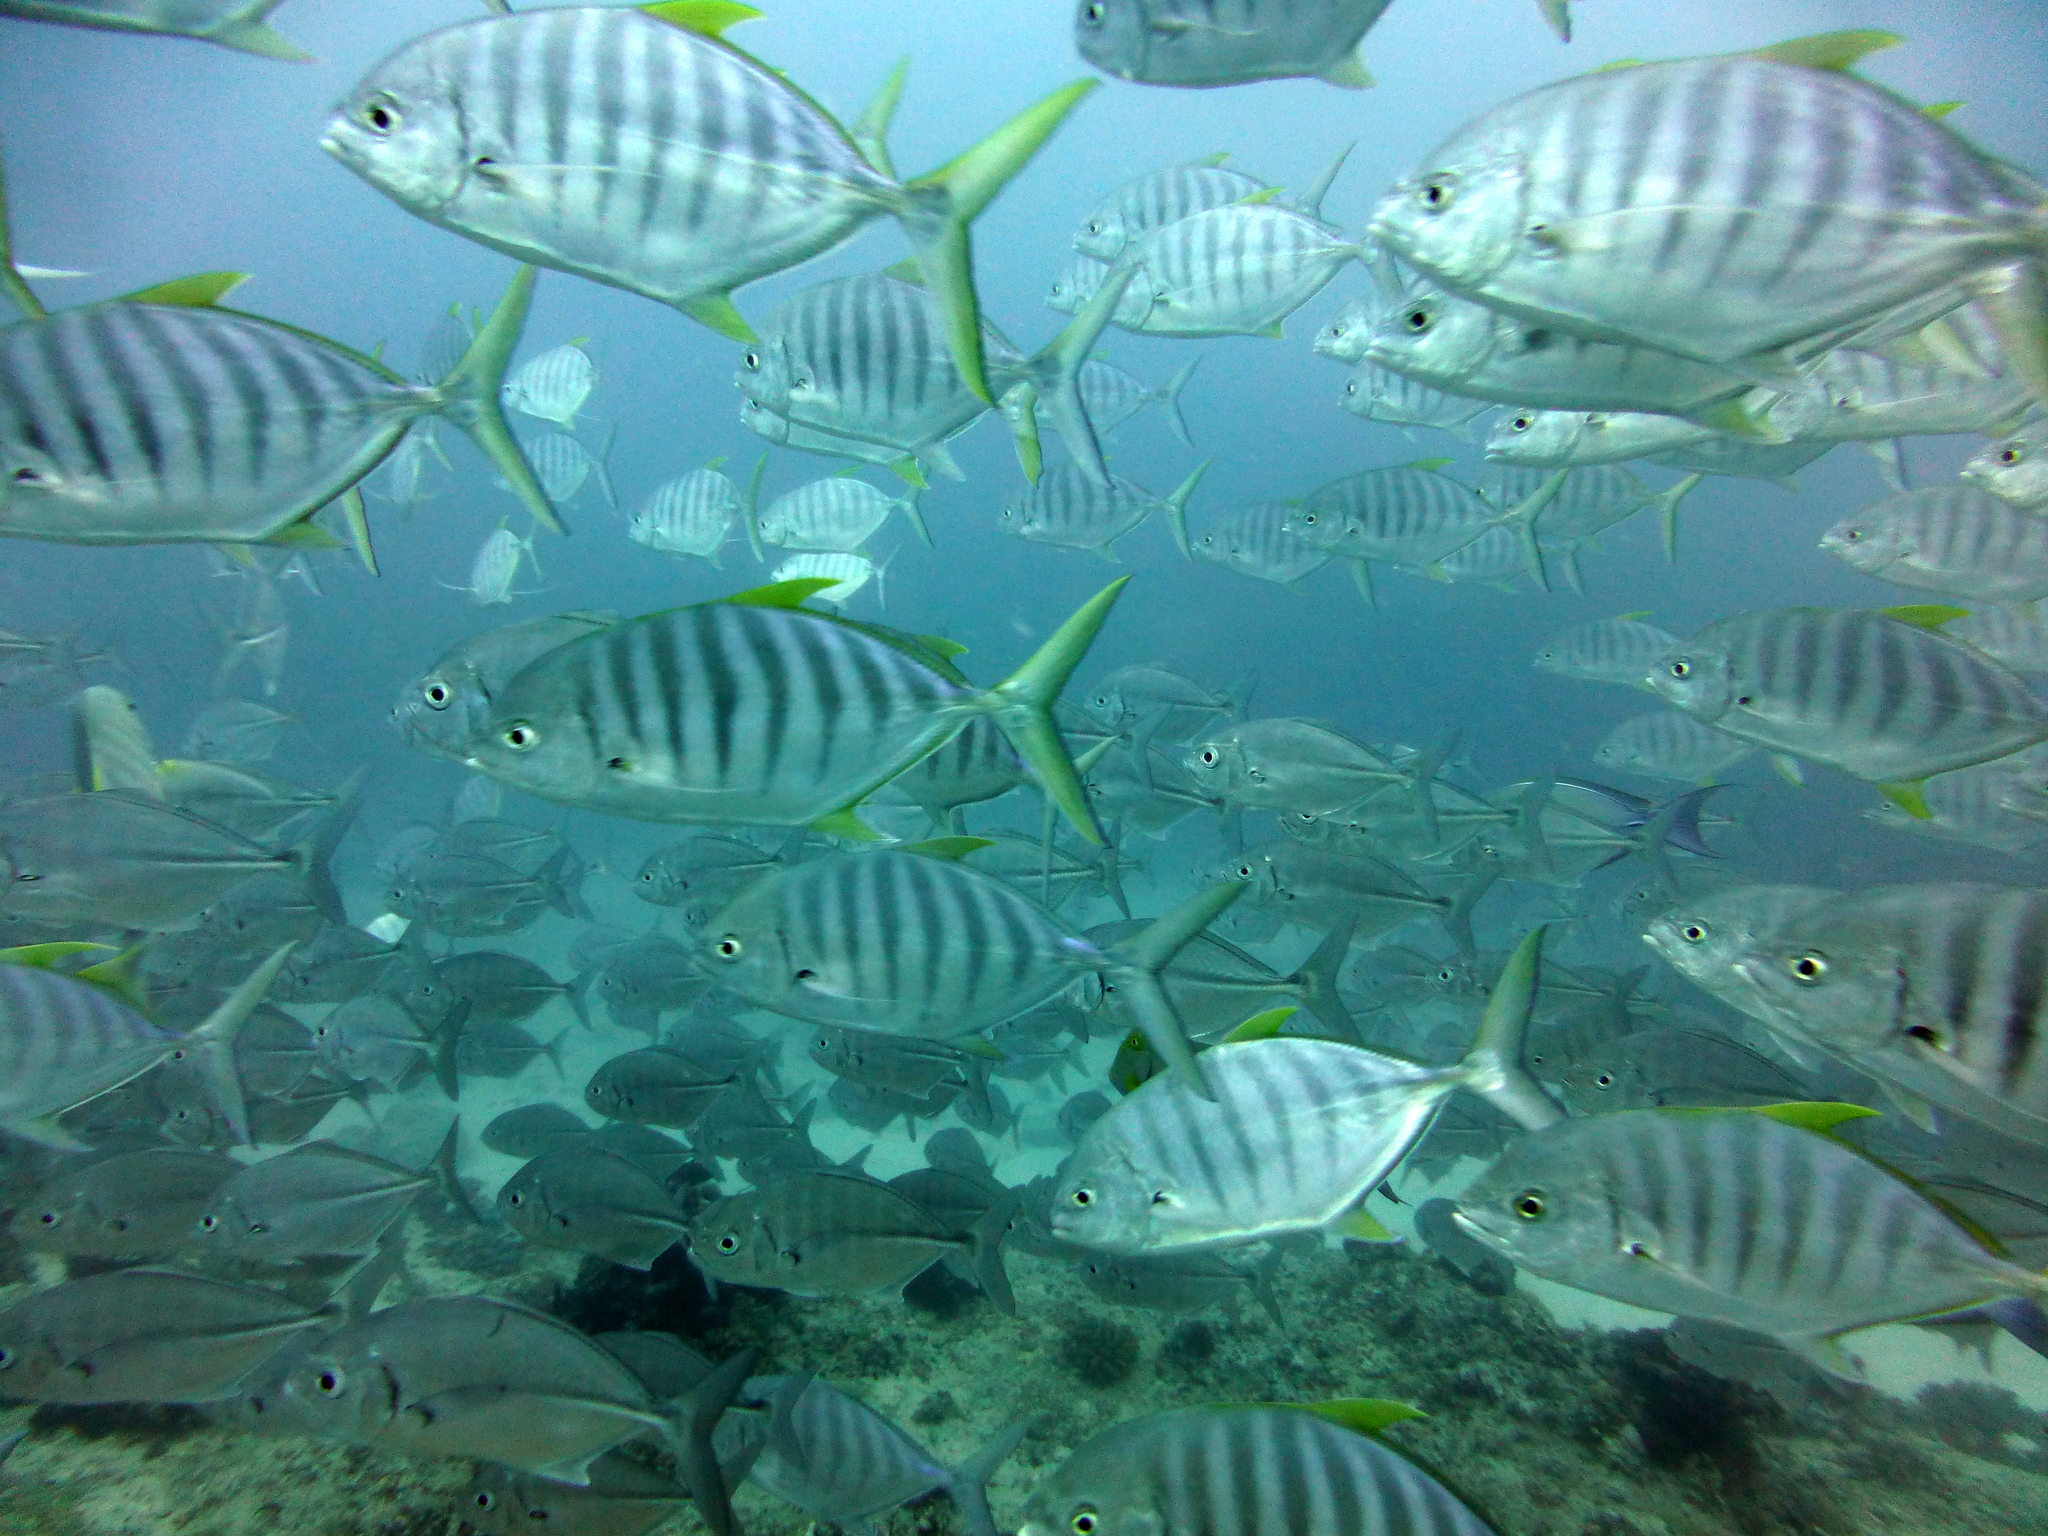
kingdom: Animalia
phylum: Chordata
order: Perciformes
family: Carangidae
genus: Carangoides
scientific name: Carangoides Ferdauia ferdau
